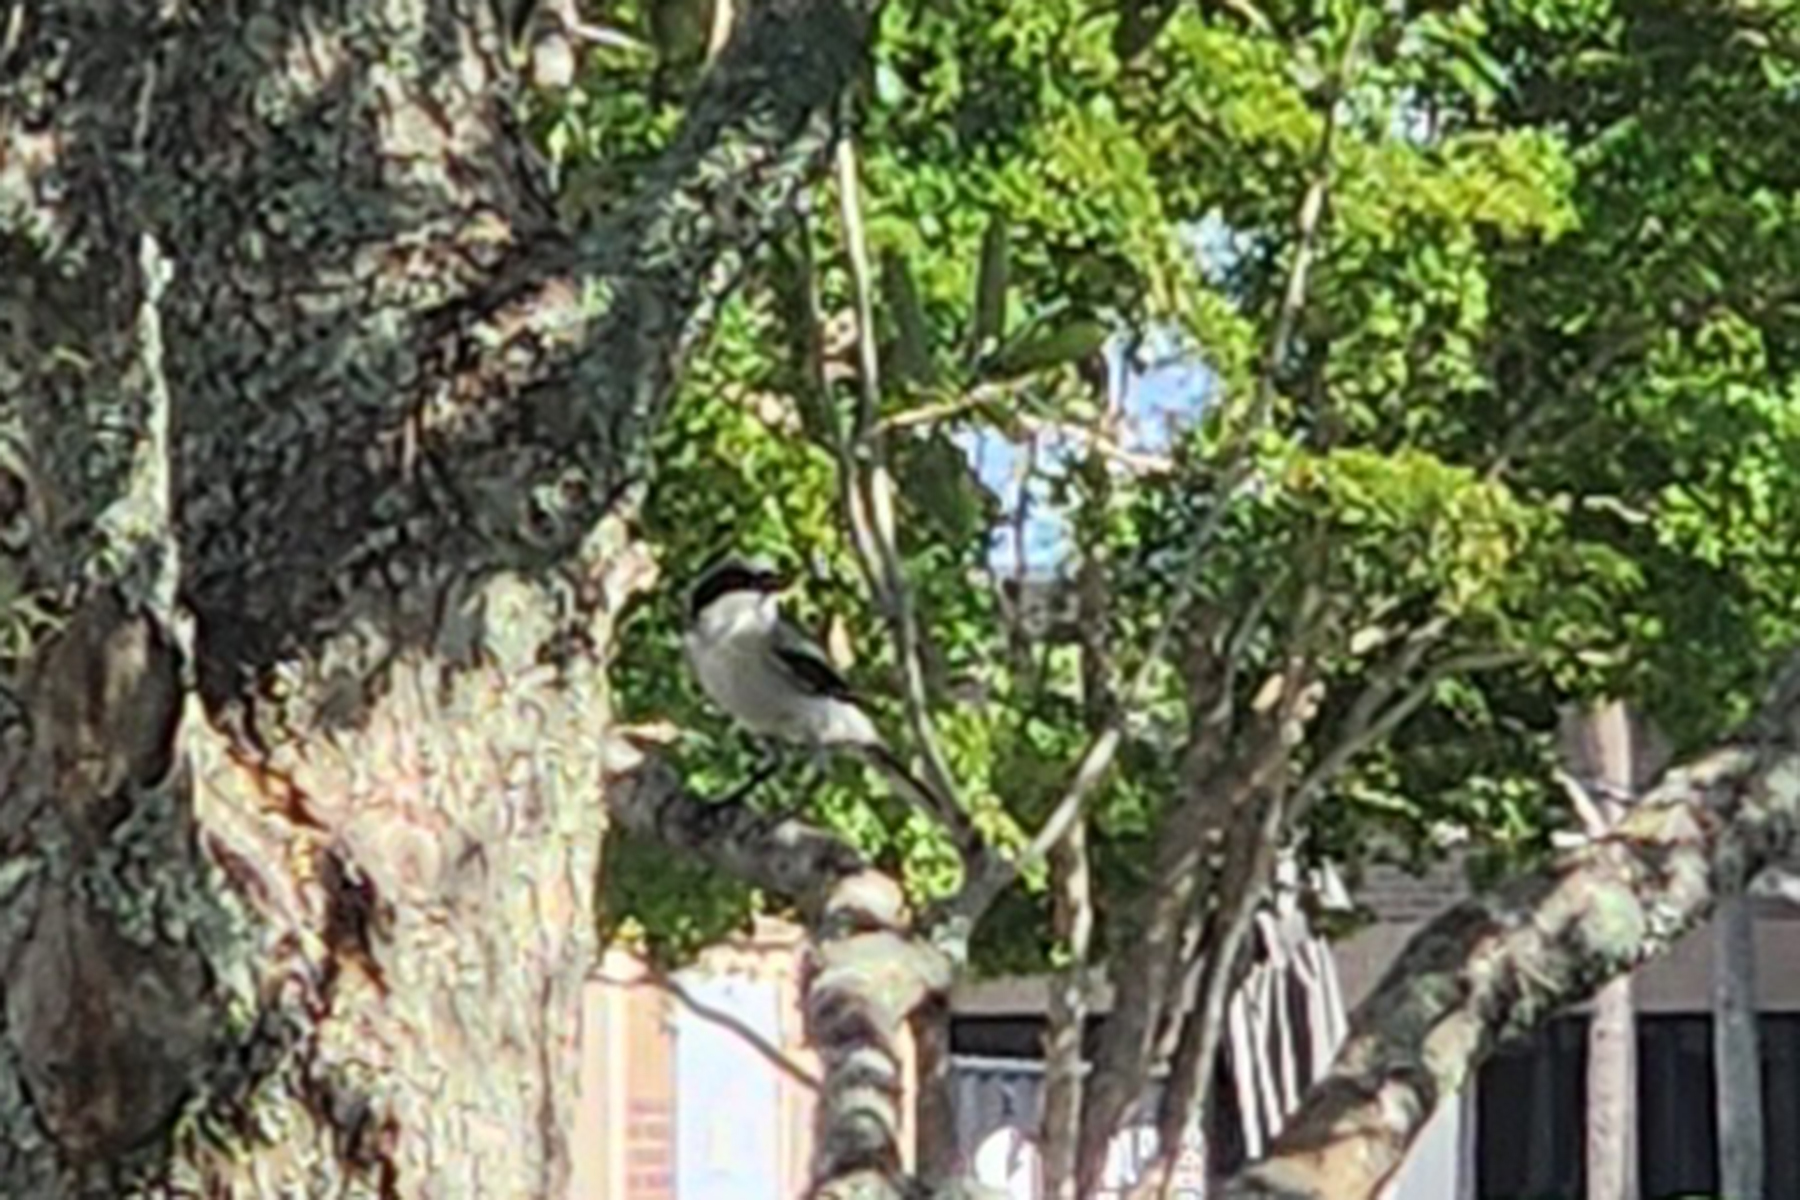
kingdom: Animalia
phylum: Chordata
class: Aves
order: Passeriformes
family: Laniidae
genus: Lanius
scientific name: Lanius ludovicianus
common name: Loggerhead shrike
